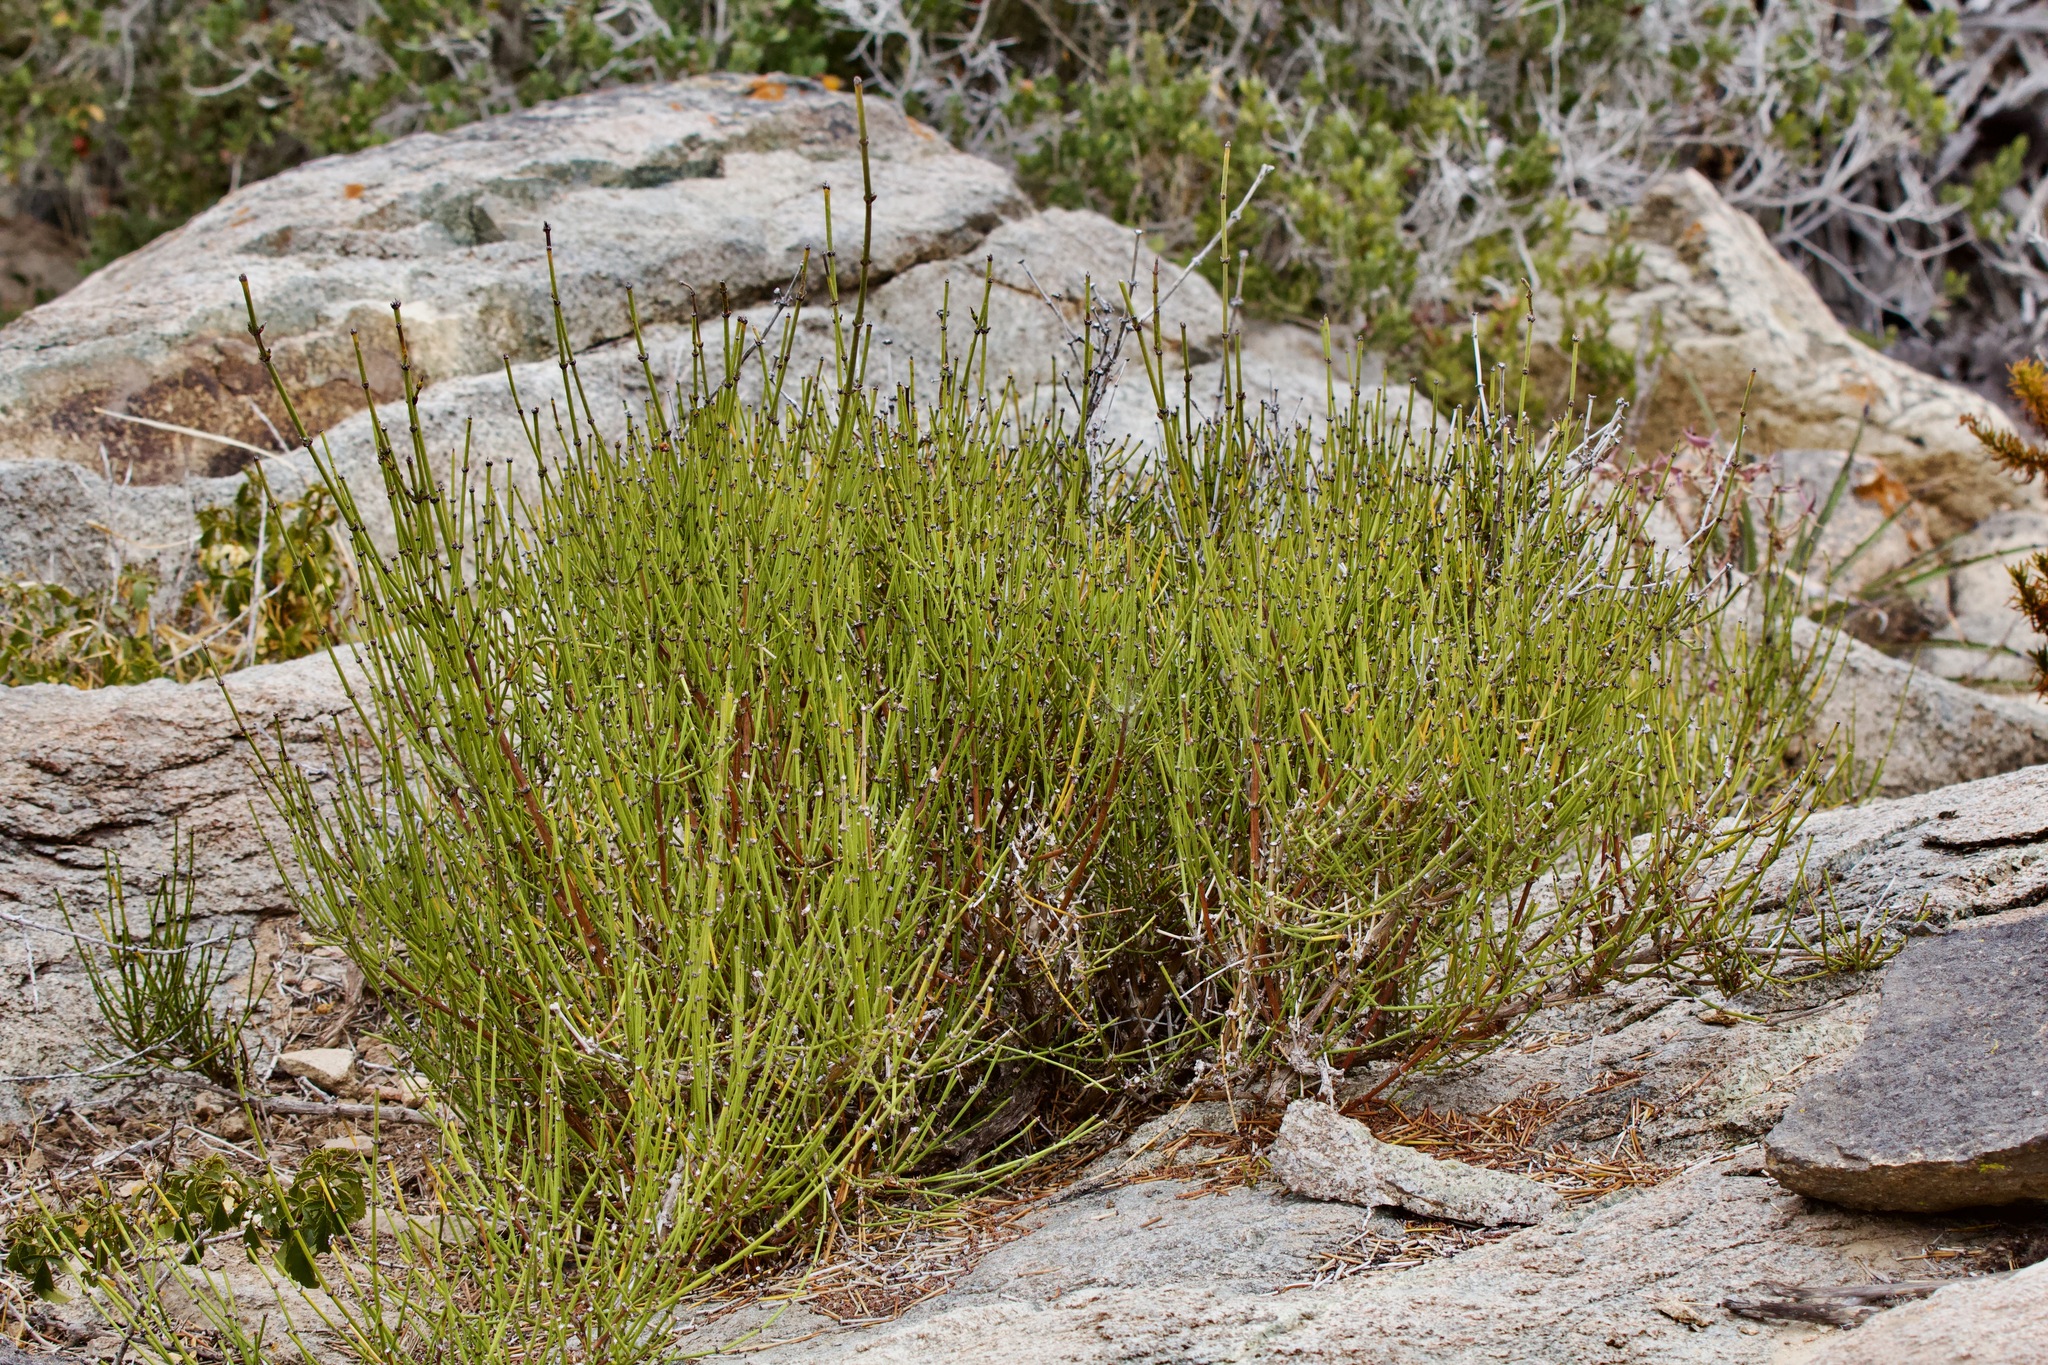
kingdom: Plantae
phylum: Tracheophyta
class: Gnetopsida
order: Ephedrales
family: Ephedraceae
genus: Ephedra
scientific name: Ephedra chilensis
